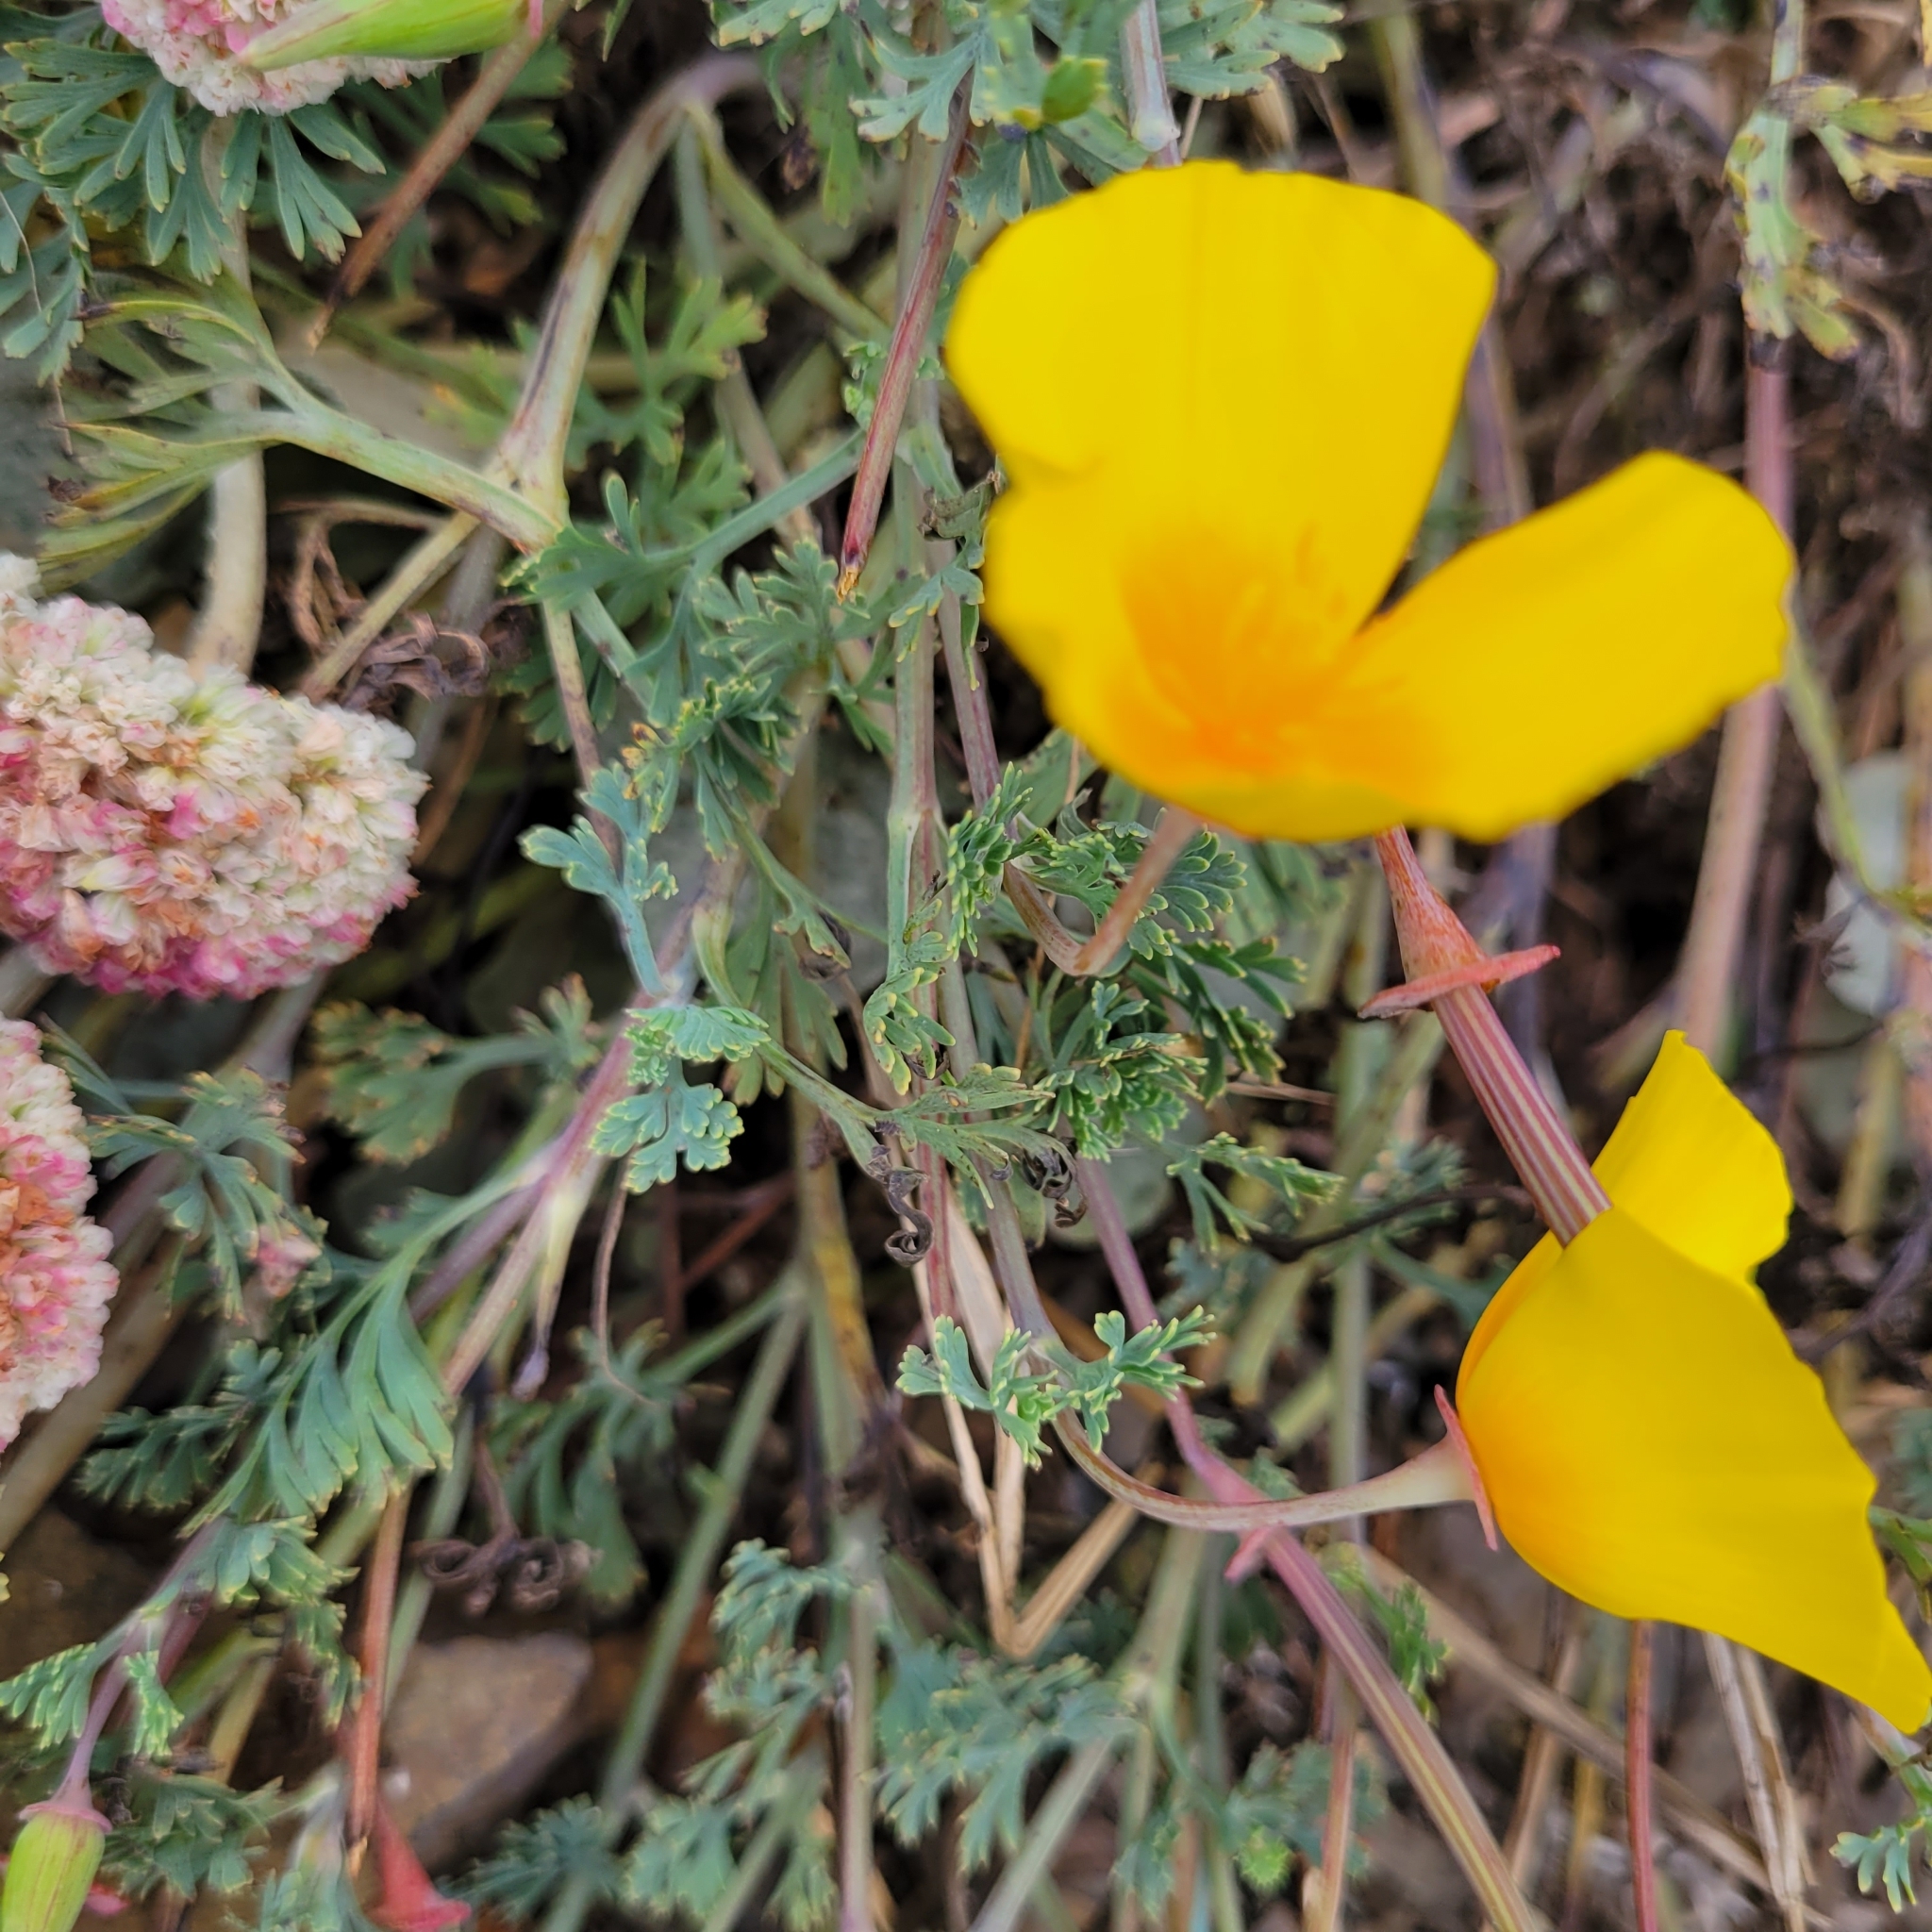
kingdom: Plantae
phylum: Tracheophyta
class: Magnoliopsida
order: Ranunculales
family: Papaveraceae
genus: Eschscholzia
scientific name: Eschscholzia californica
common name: California poppy
